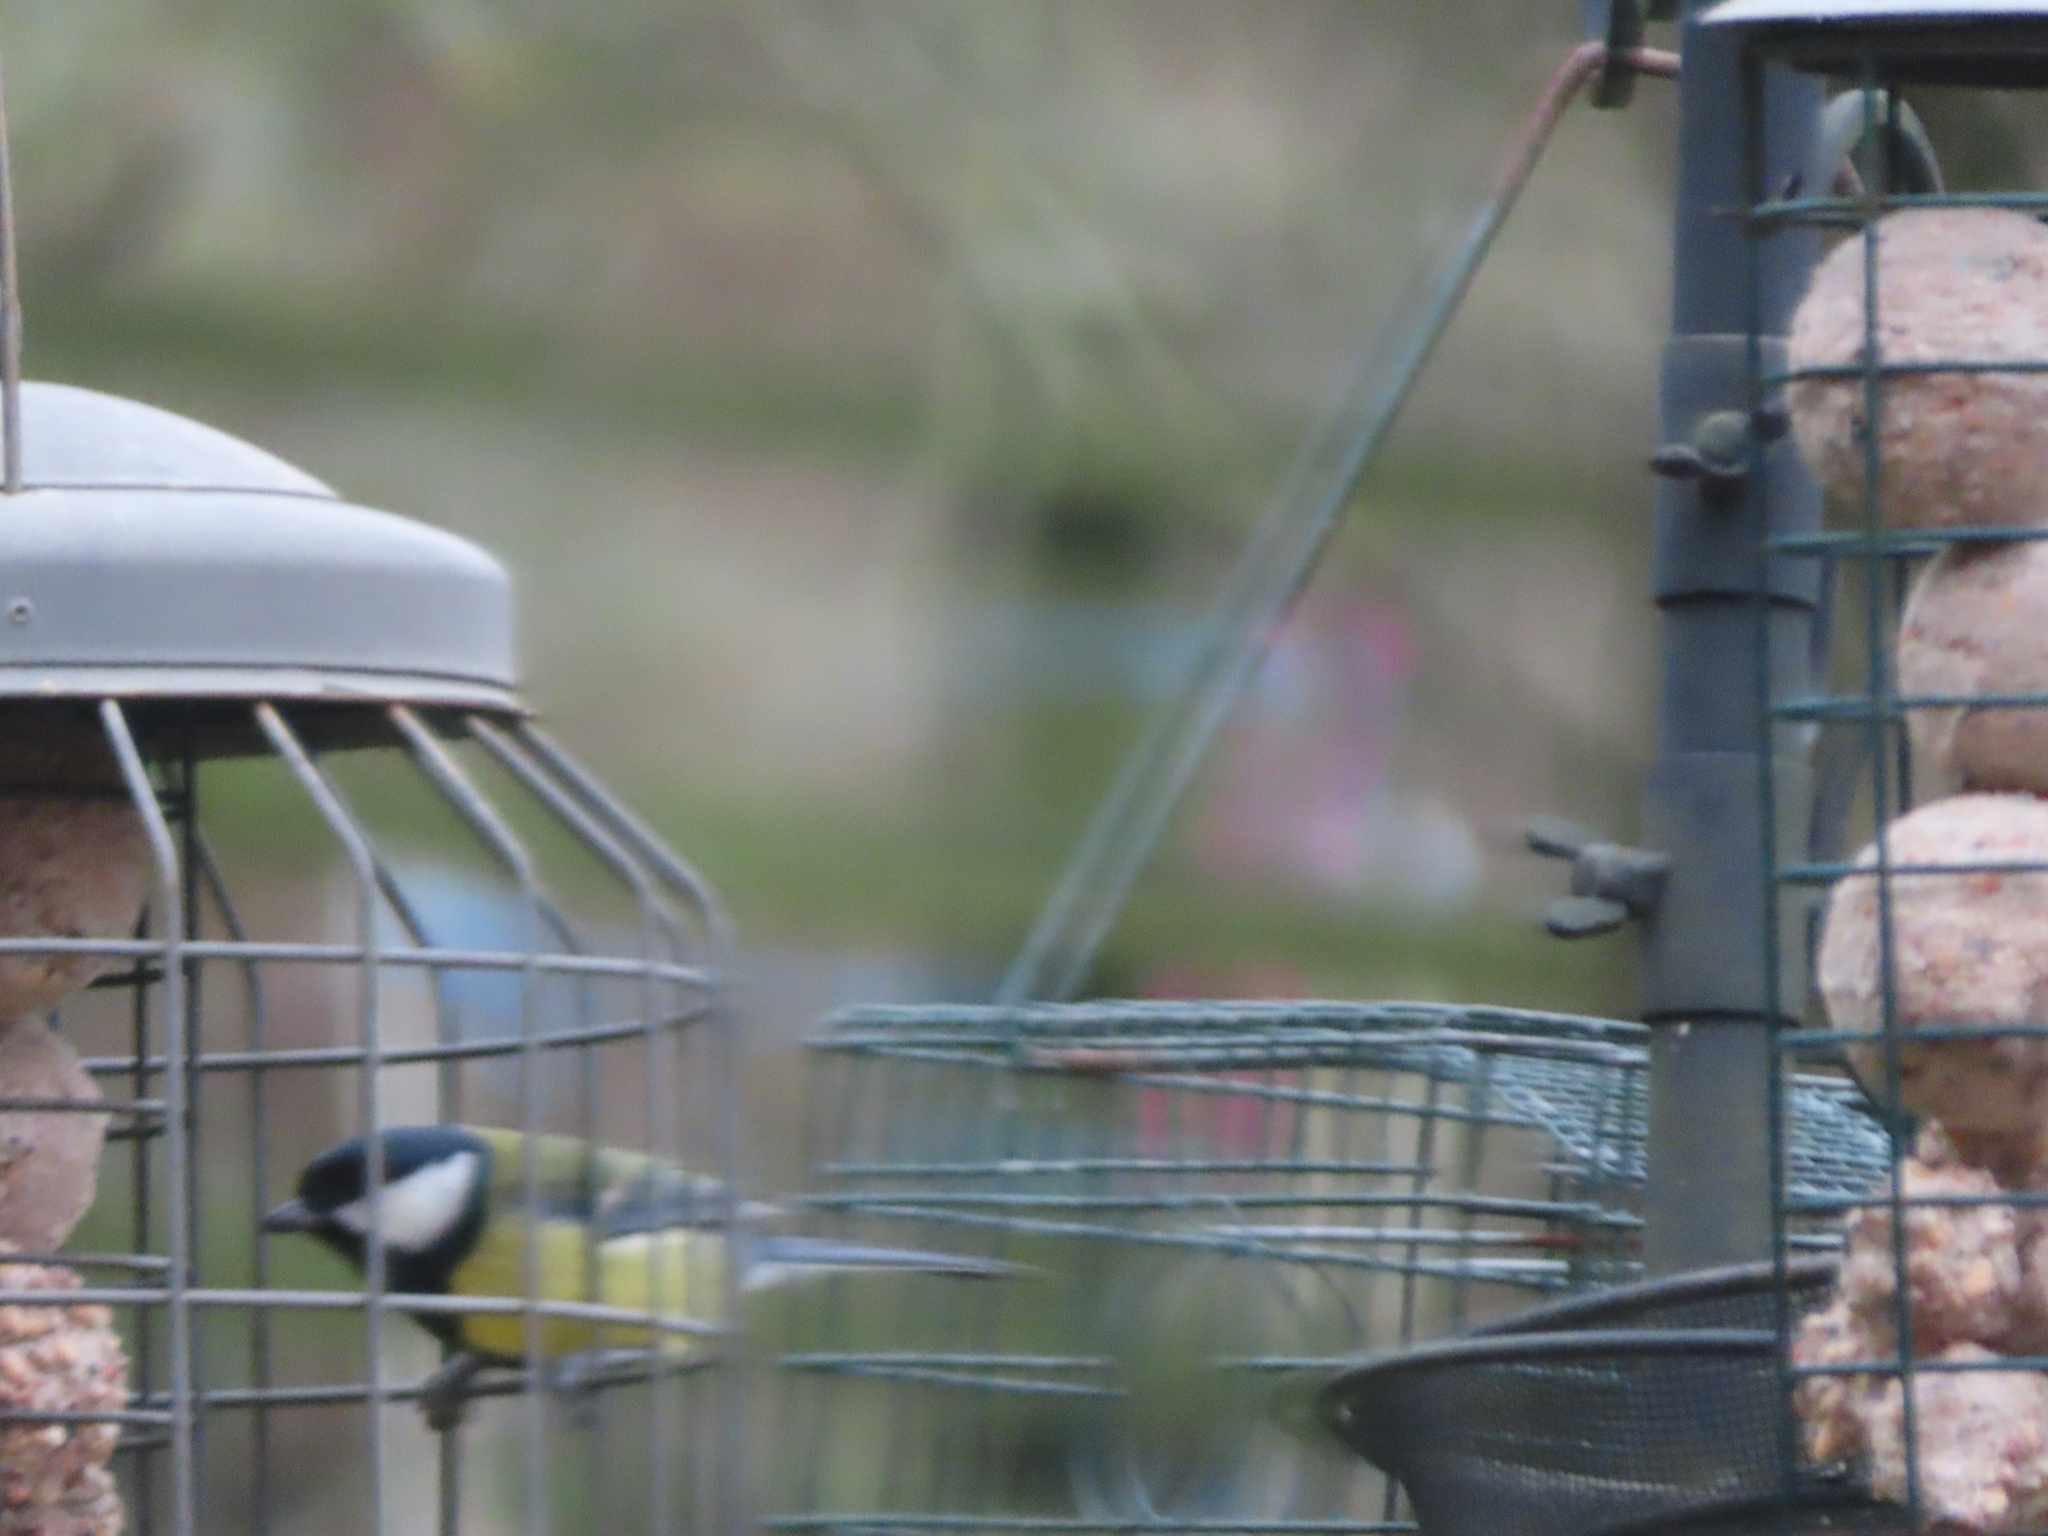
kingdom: Animalia
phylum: Chordata
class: Aves
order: Passeriformes
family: Paridae
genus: Parus
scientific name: Parus major
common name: Great tit
